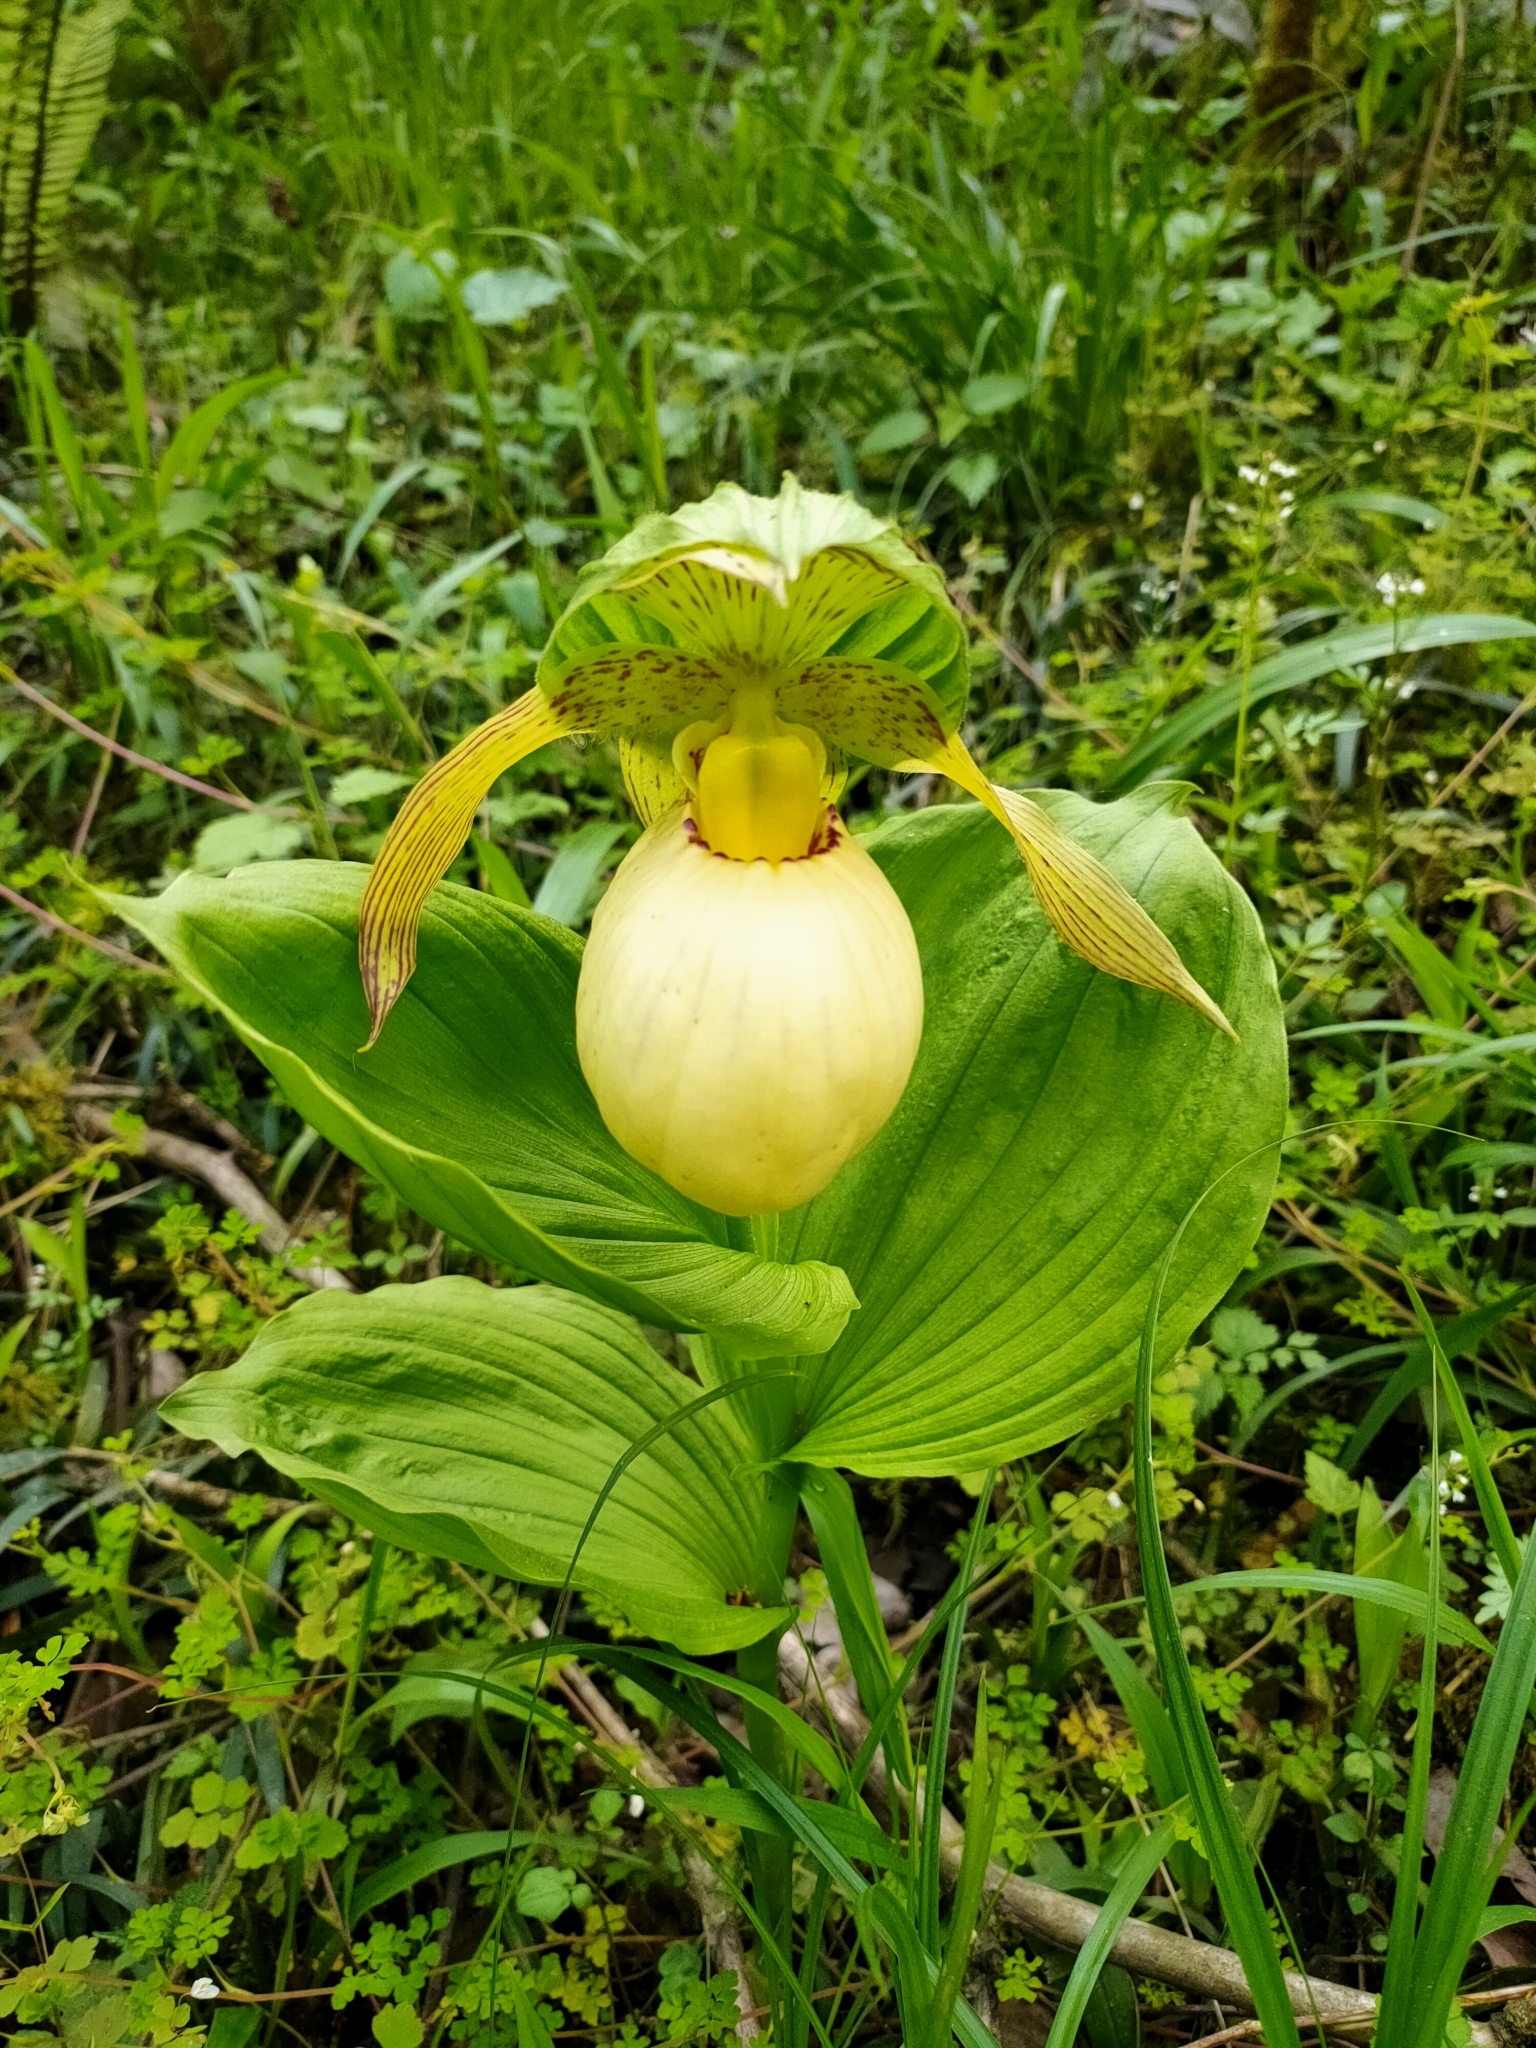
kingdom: Plantae
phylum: Tracheophyta
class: Liliopsida
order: Asparagales
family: Orchidaceae
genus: Cypripedium
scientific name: Cypripedium fasciolatum
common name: Striped lady slipper
